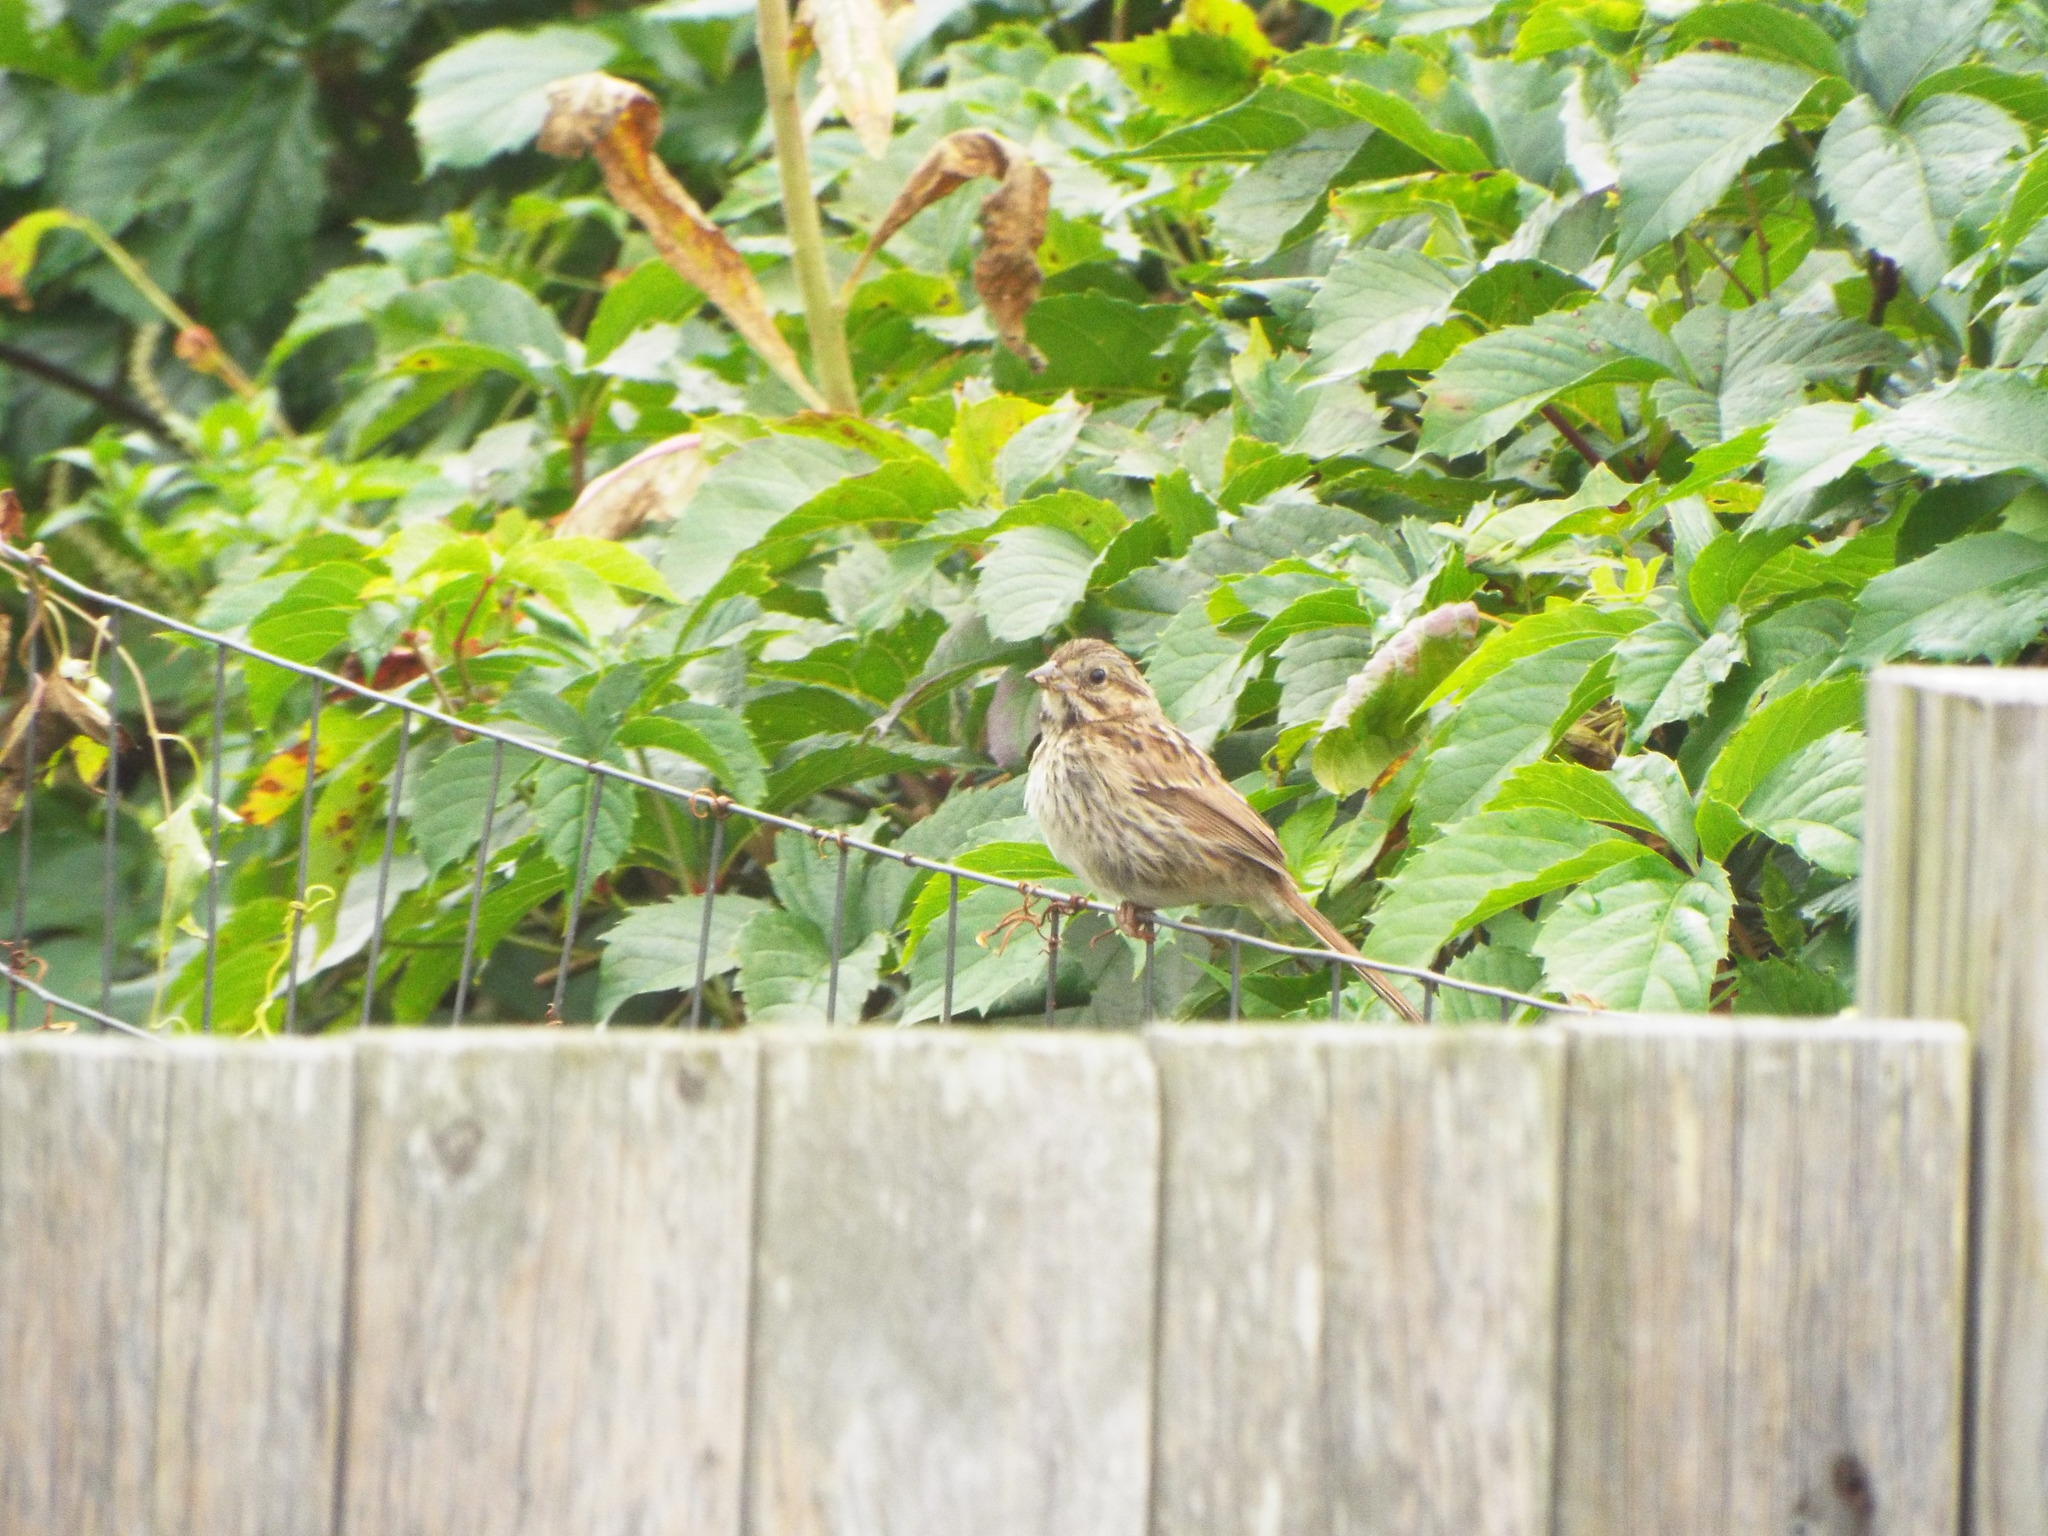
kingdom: Animalia
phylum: Chordata
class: Aves
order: Passeriformes
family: Passerellidae
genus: Melospiza
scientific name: Melospiza melodia
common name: Song sparrow
